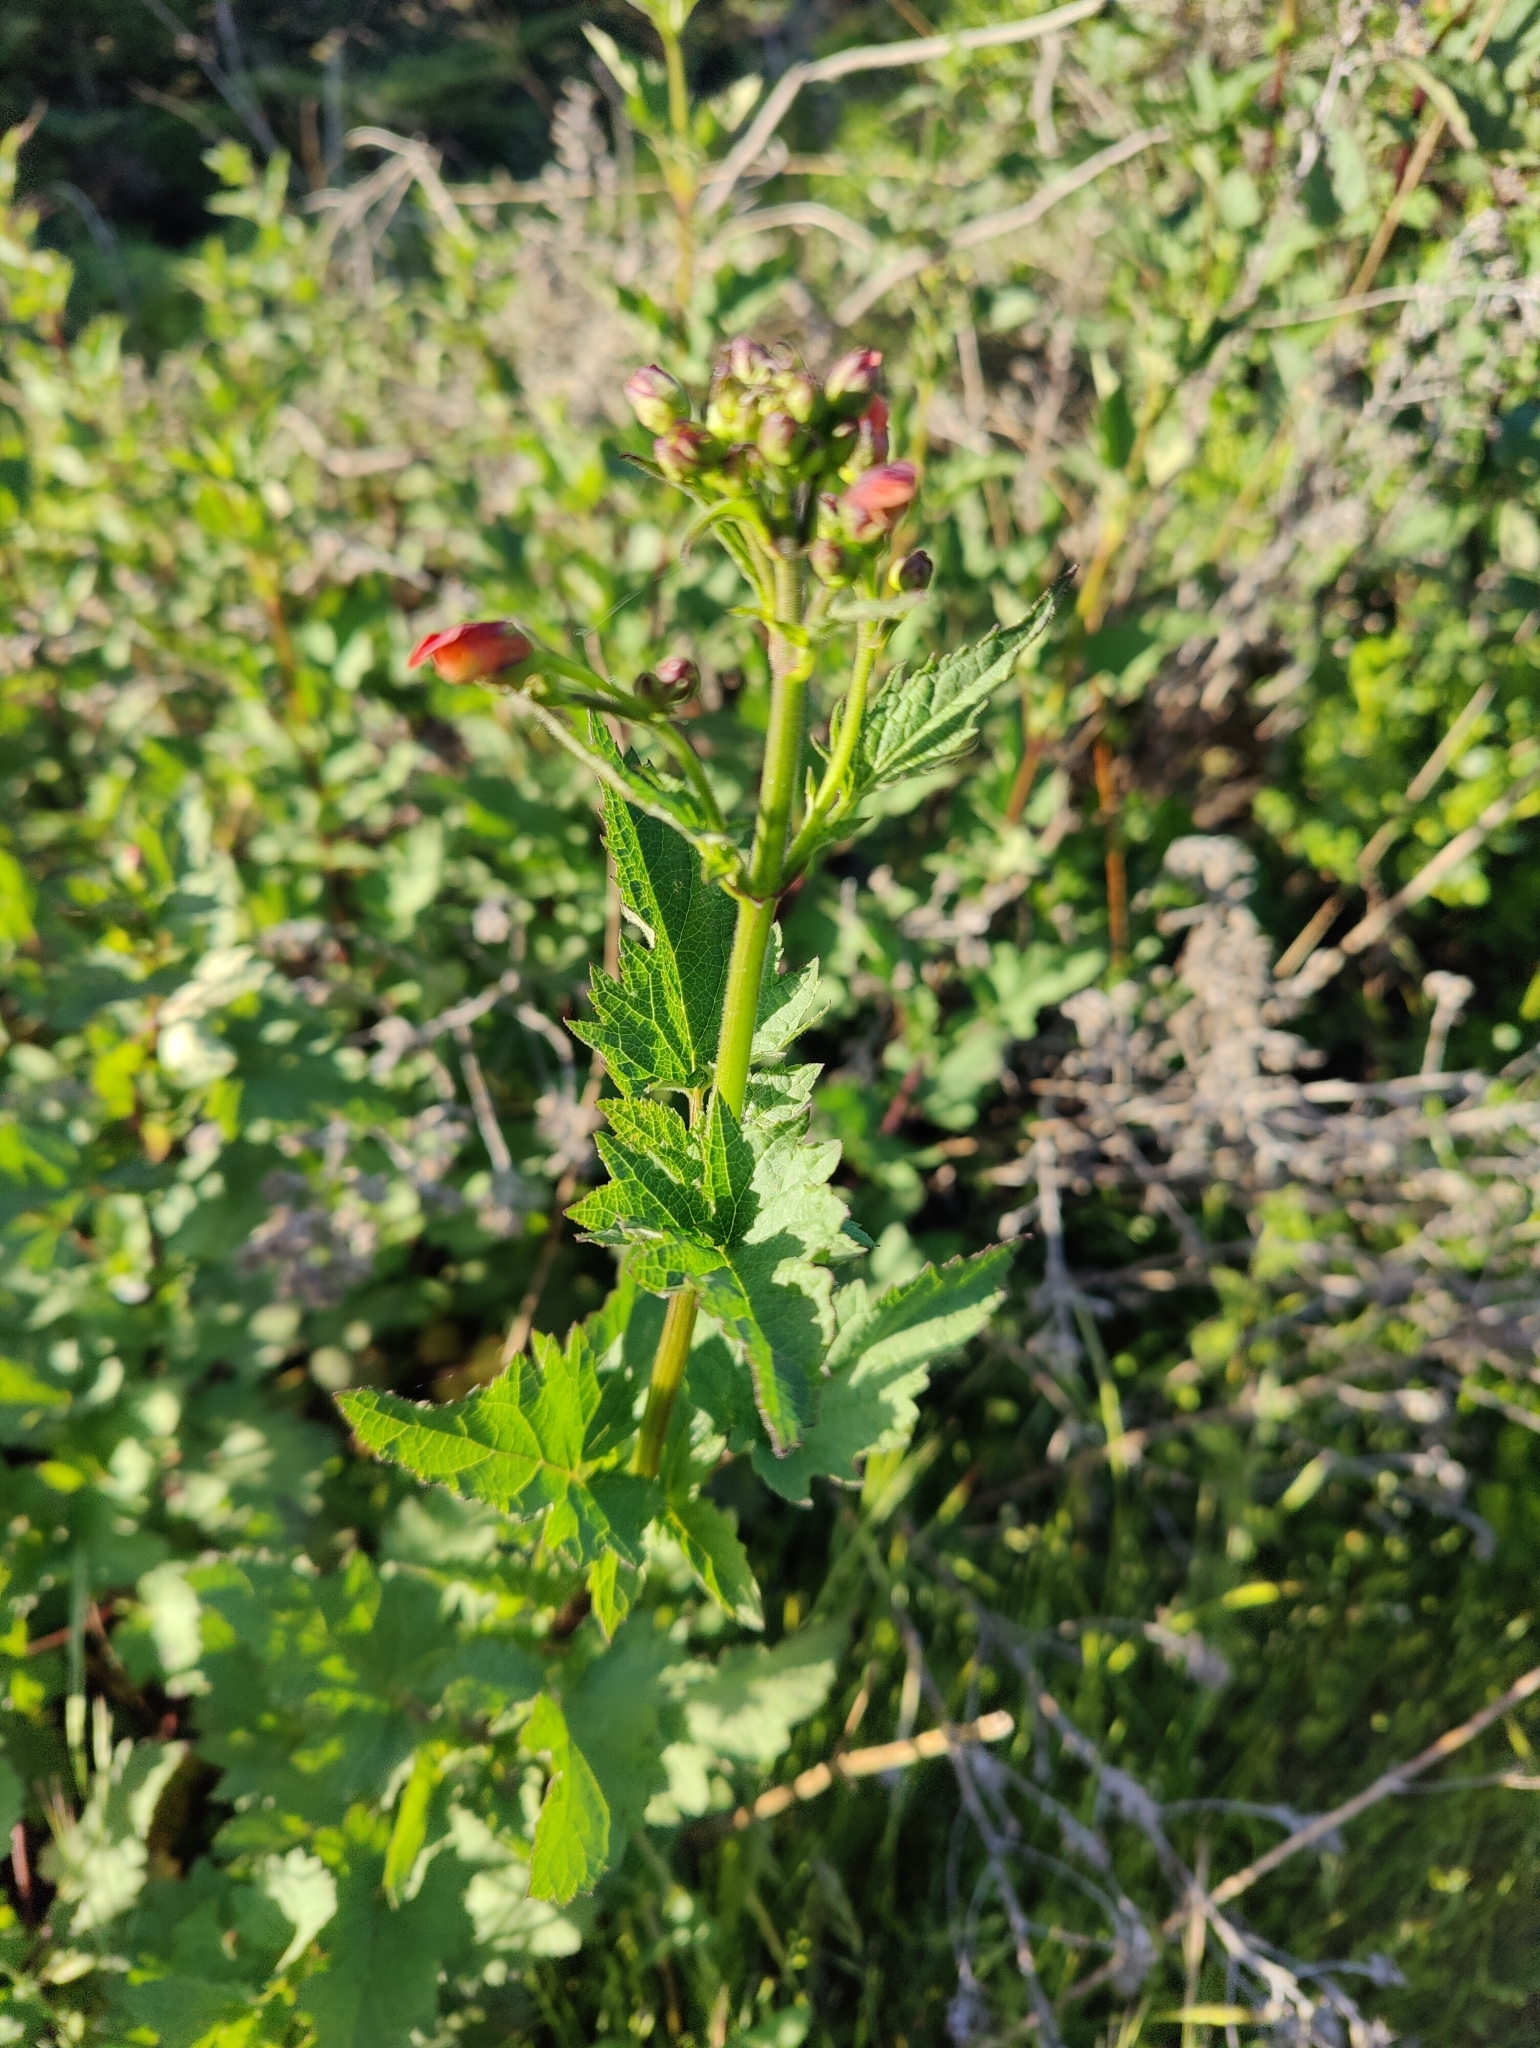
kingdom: Plantae
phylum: Tracheophyta
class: Magnoliopsida
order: Lamiales
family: Scrophulariaceae
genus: Scrophularia
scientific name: Scrophularia californica
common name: California figwort
